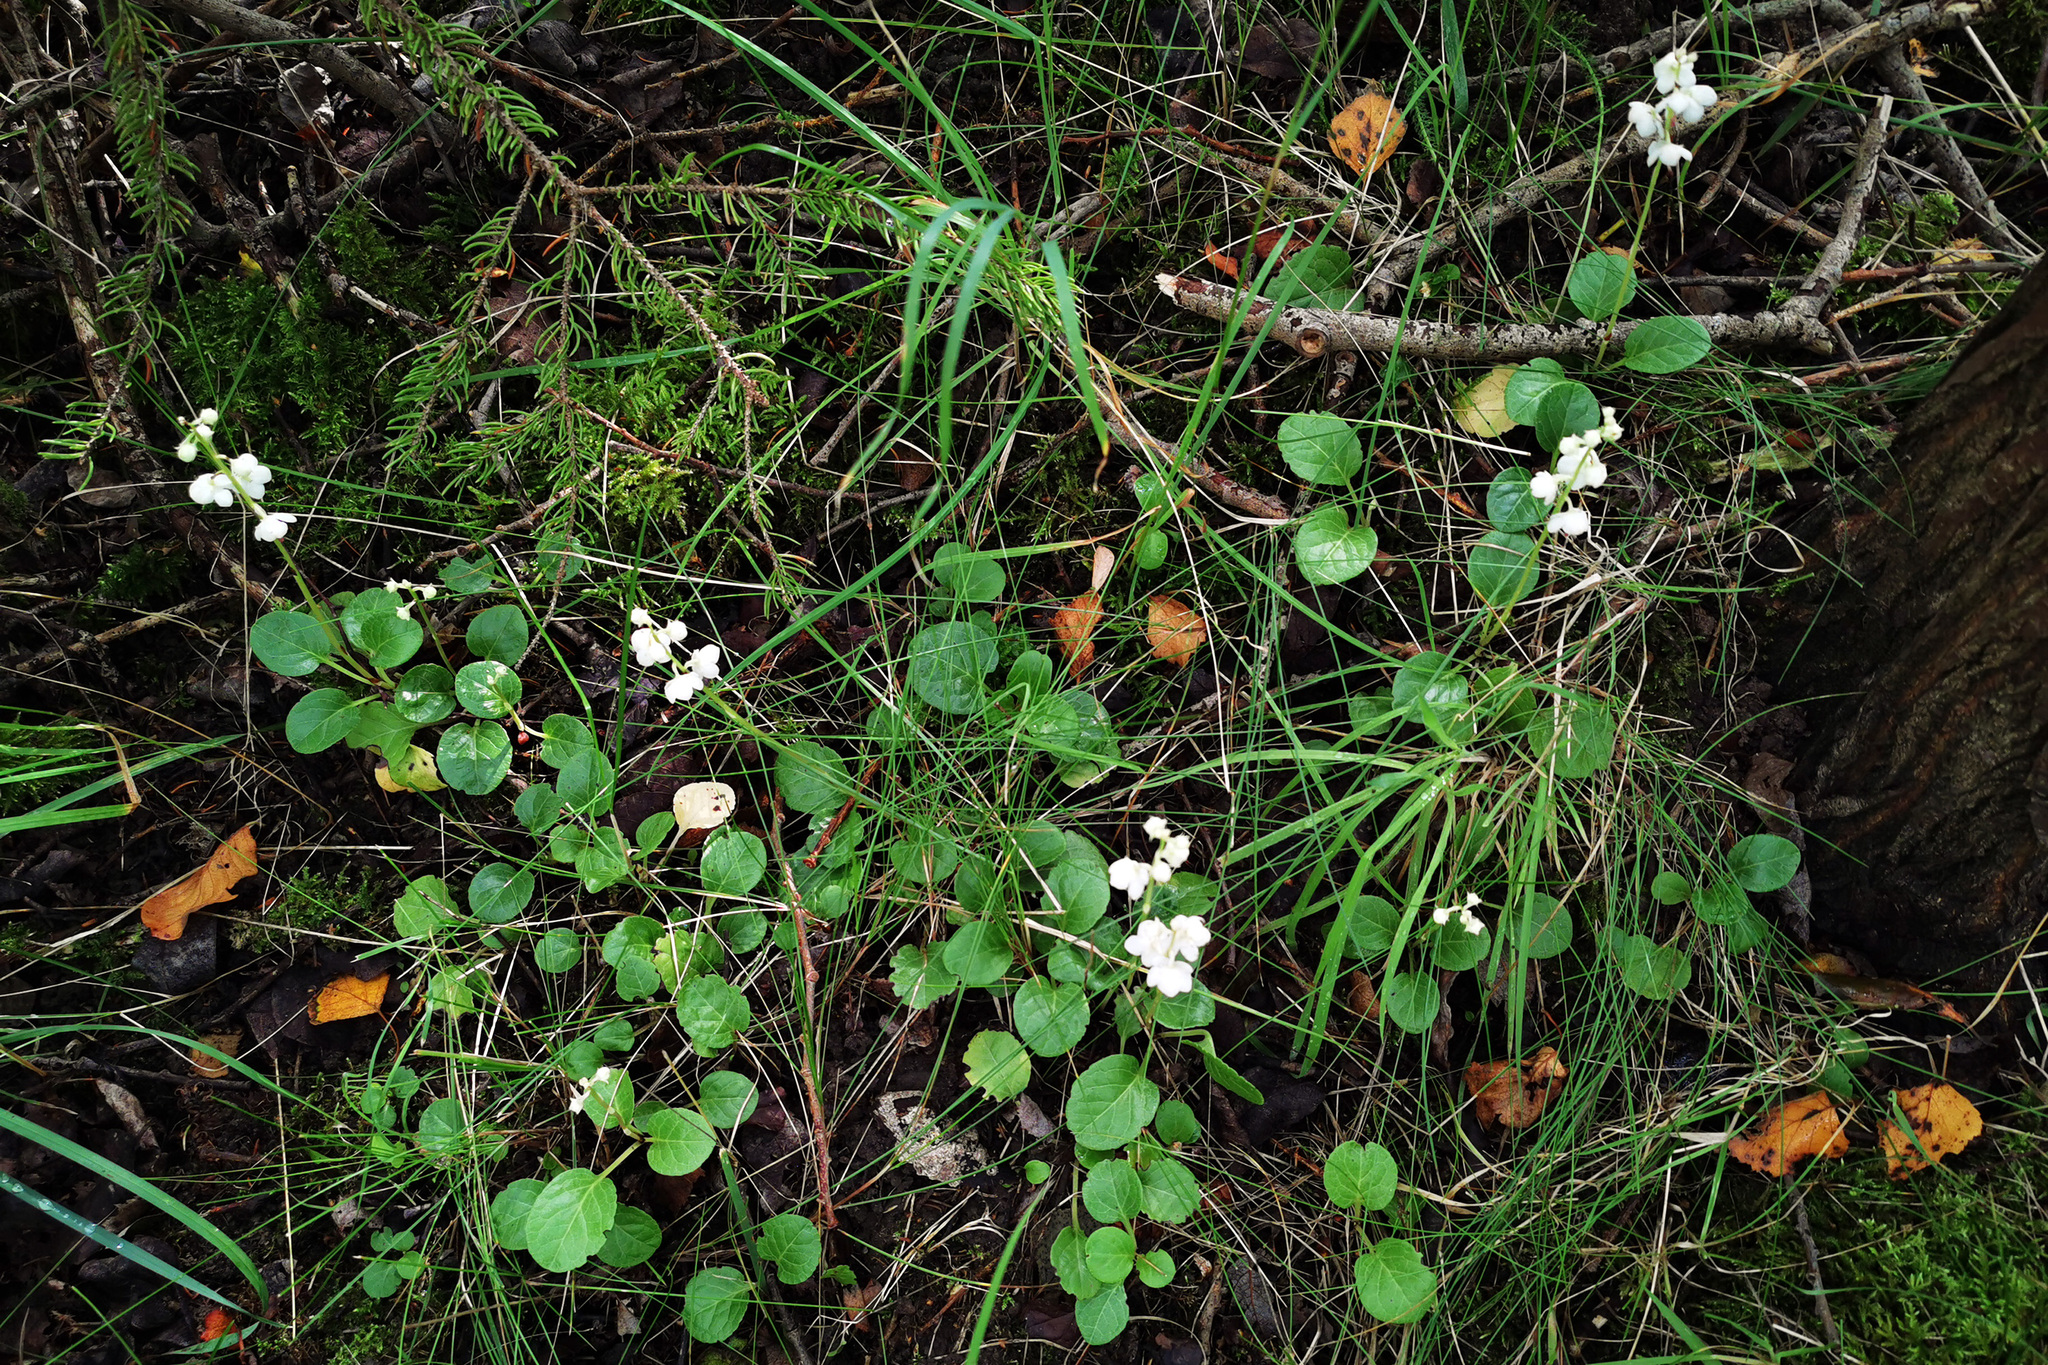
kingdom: Plantae
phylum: Tracheophyta
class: Magnoliopsida
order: Ericales
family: Ericaceae
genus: Pyrola
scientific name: Pyrola rotundifolia
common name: Round-leaved wintergreen
